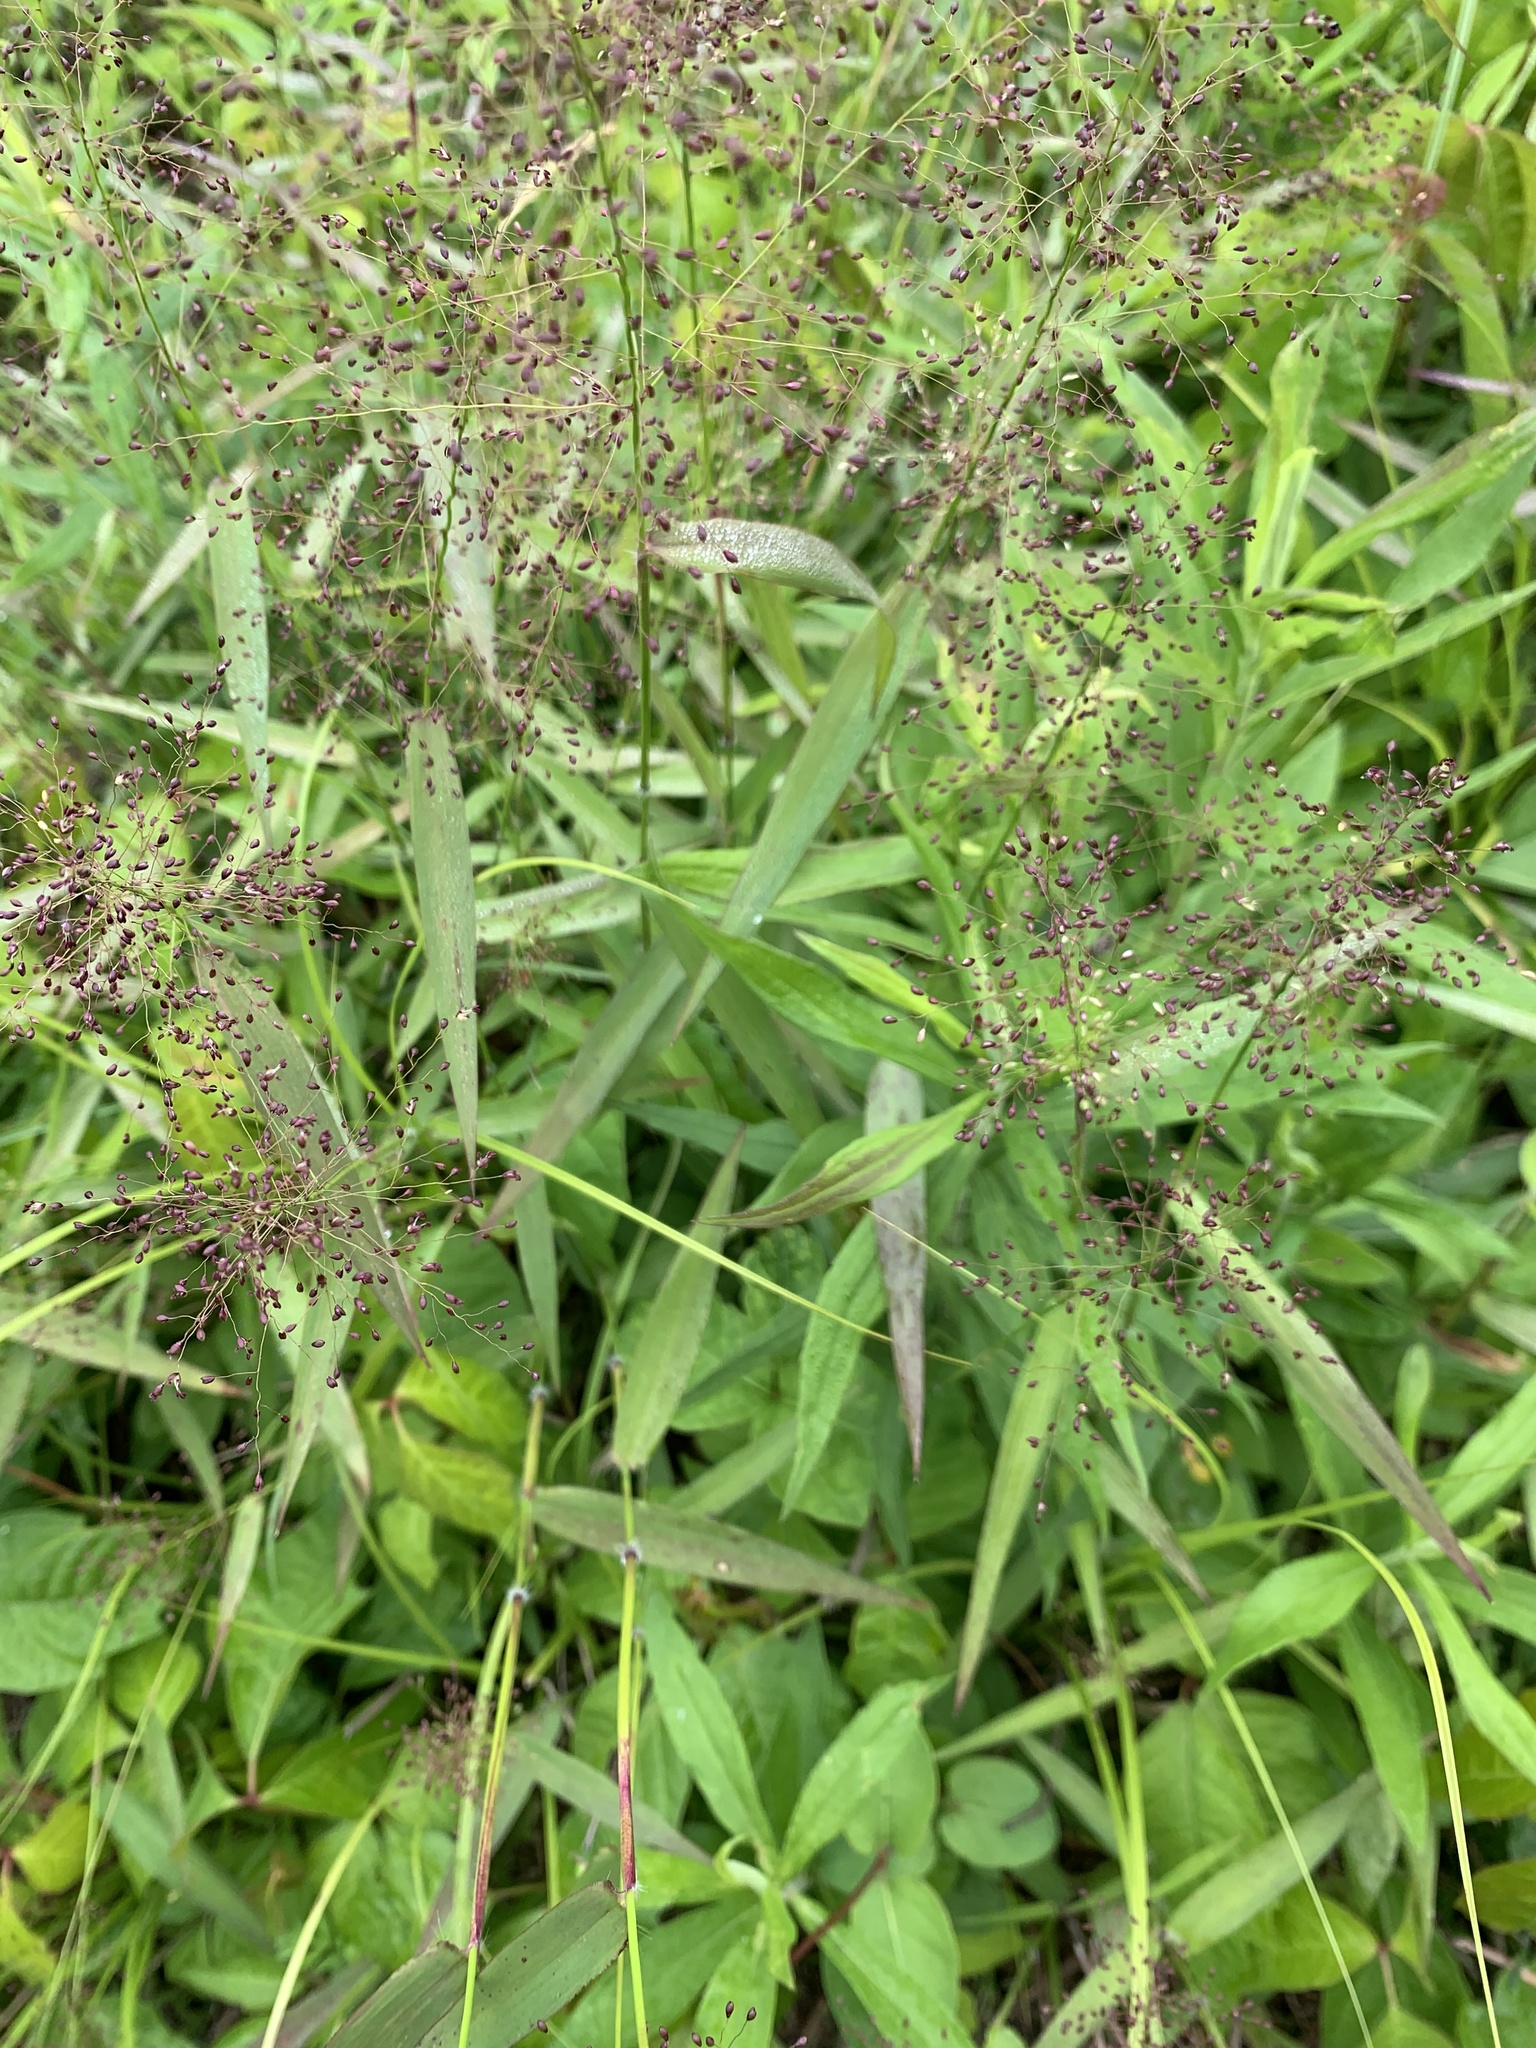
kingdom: Plantae
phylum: Tracheophyta
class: Liliopsida
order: Poales
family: Poaceae
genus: Dichanthelium
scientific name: Dichanthelium microcarpon
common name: Small-fruited witchgrass
